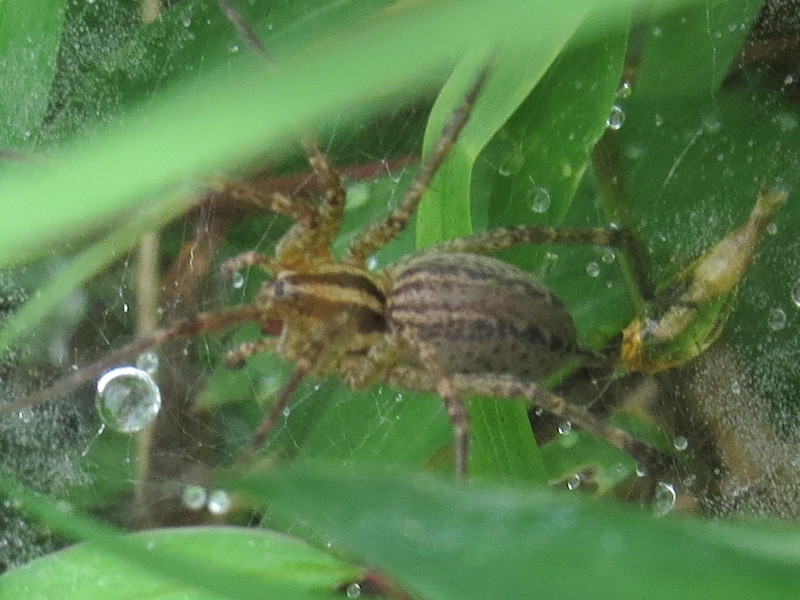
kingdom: Animalia
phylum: Arthropoda
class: Arachnida
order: Araneae
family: Agelenidae
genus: Agelenopsis
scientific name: Agelenopsis
